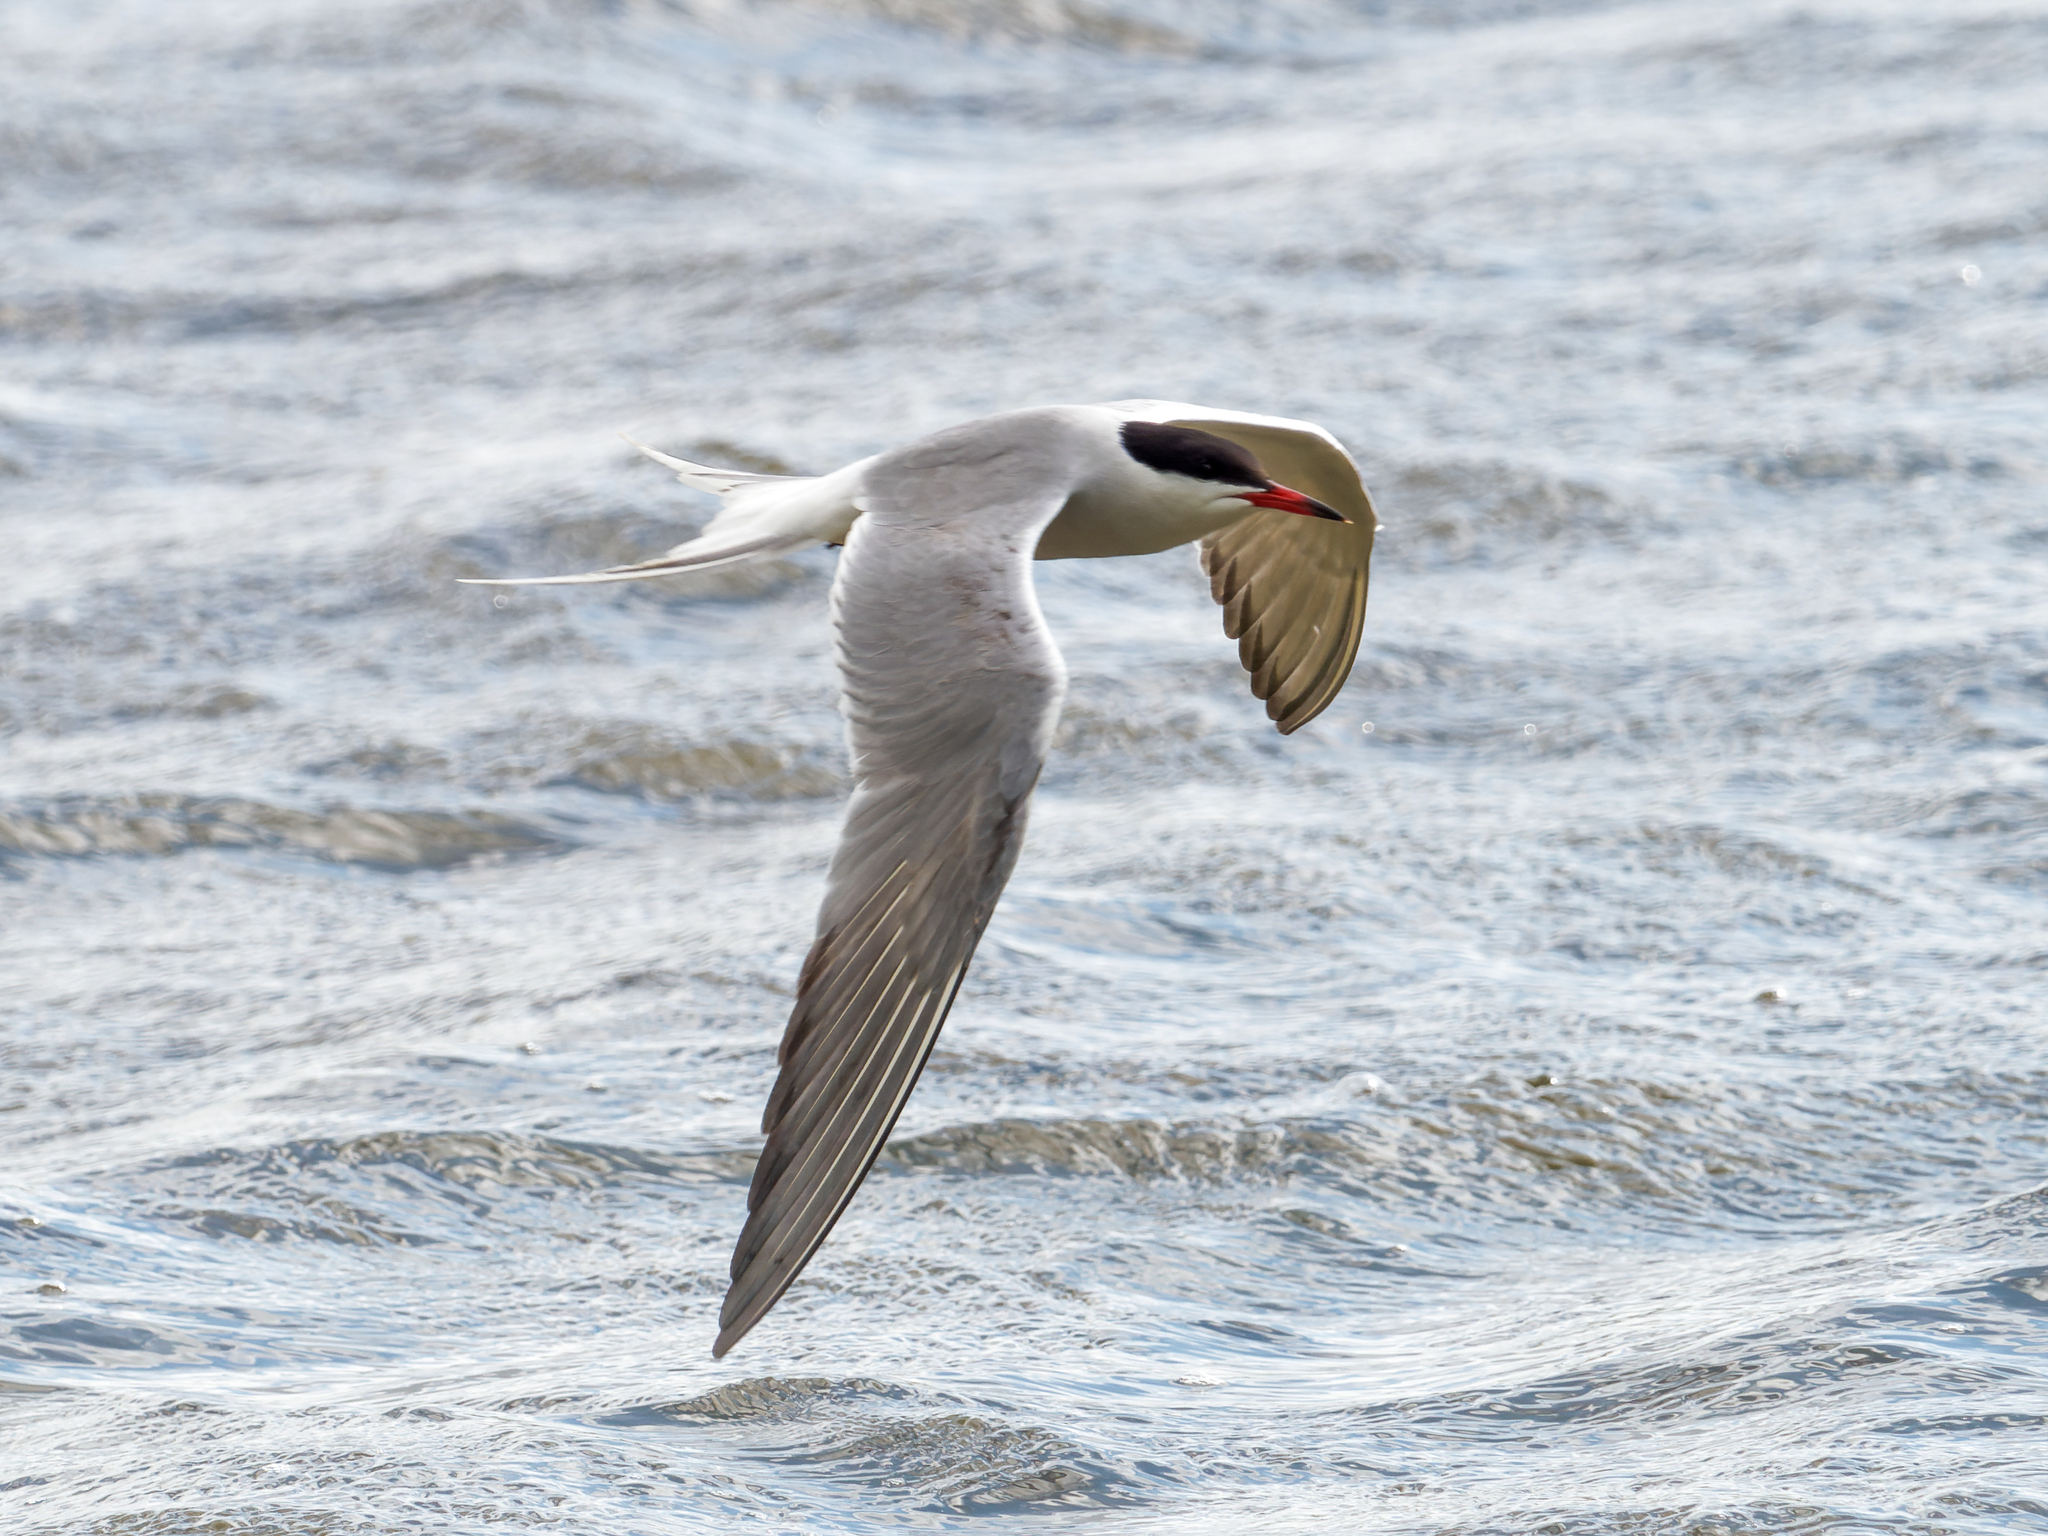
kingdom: Animalia
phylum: Chordata
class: Aves
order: Charadriiformes
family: Laridae
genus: Sterna
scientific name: Sterna hirundo
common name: Common tern
